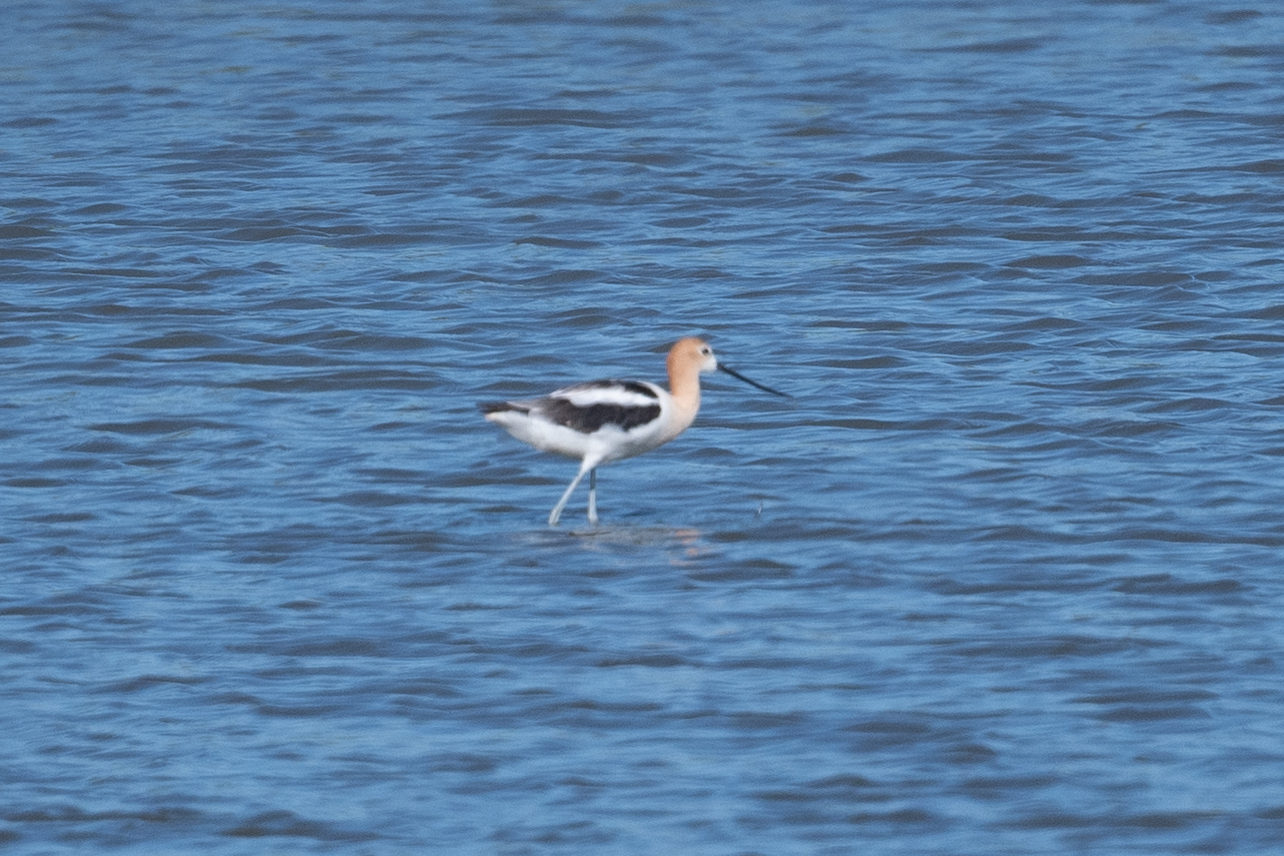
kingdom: Animalia
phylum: Chordata
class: Aves
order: Charadriiformes
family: Recurvirostridae
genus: Recurvirostra
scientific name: Recurvirostra americana
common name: American avocet
